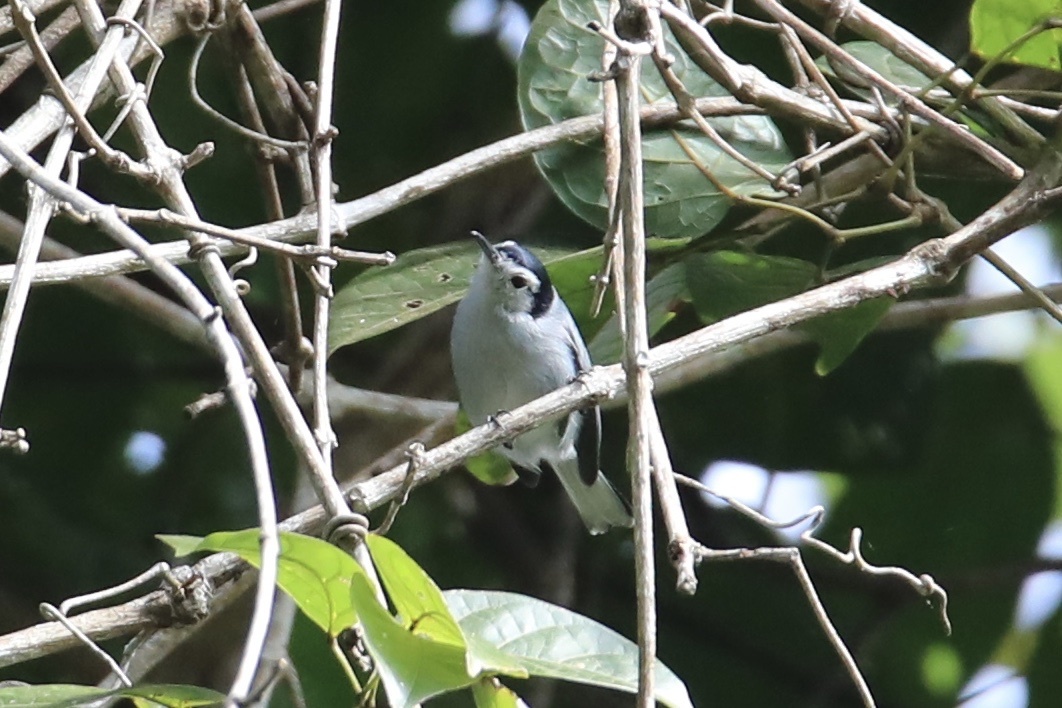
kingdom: Animalia
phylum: Chordata
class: Aves
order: Passeriformes
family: Polioptilidae
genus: Polioptila
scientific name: Polioptila plumbea
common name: Tropical gnatcatcher
